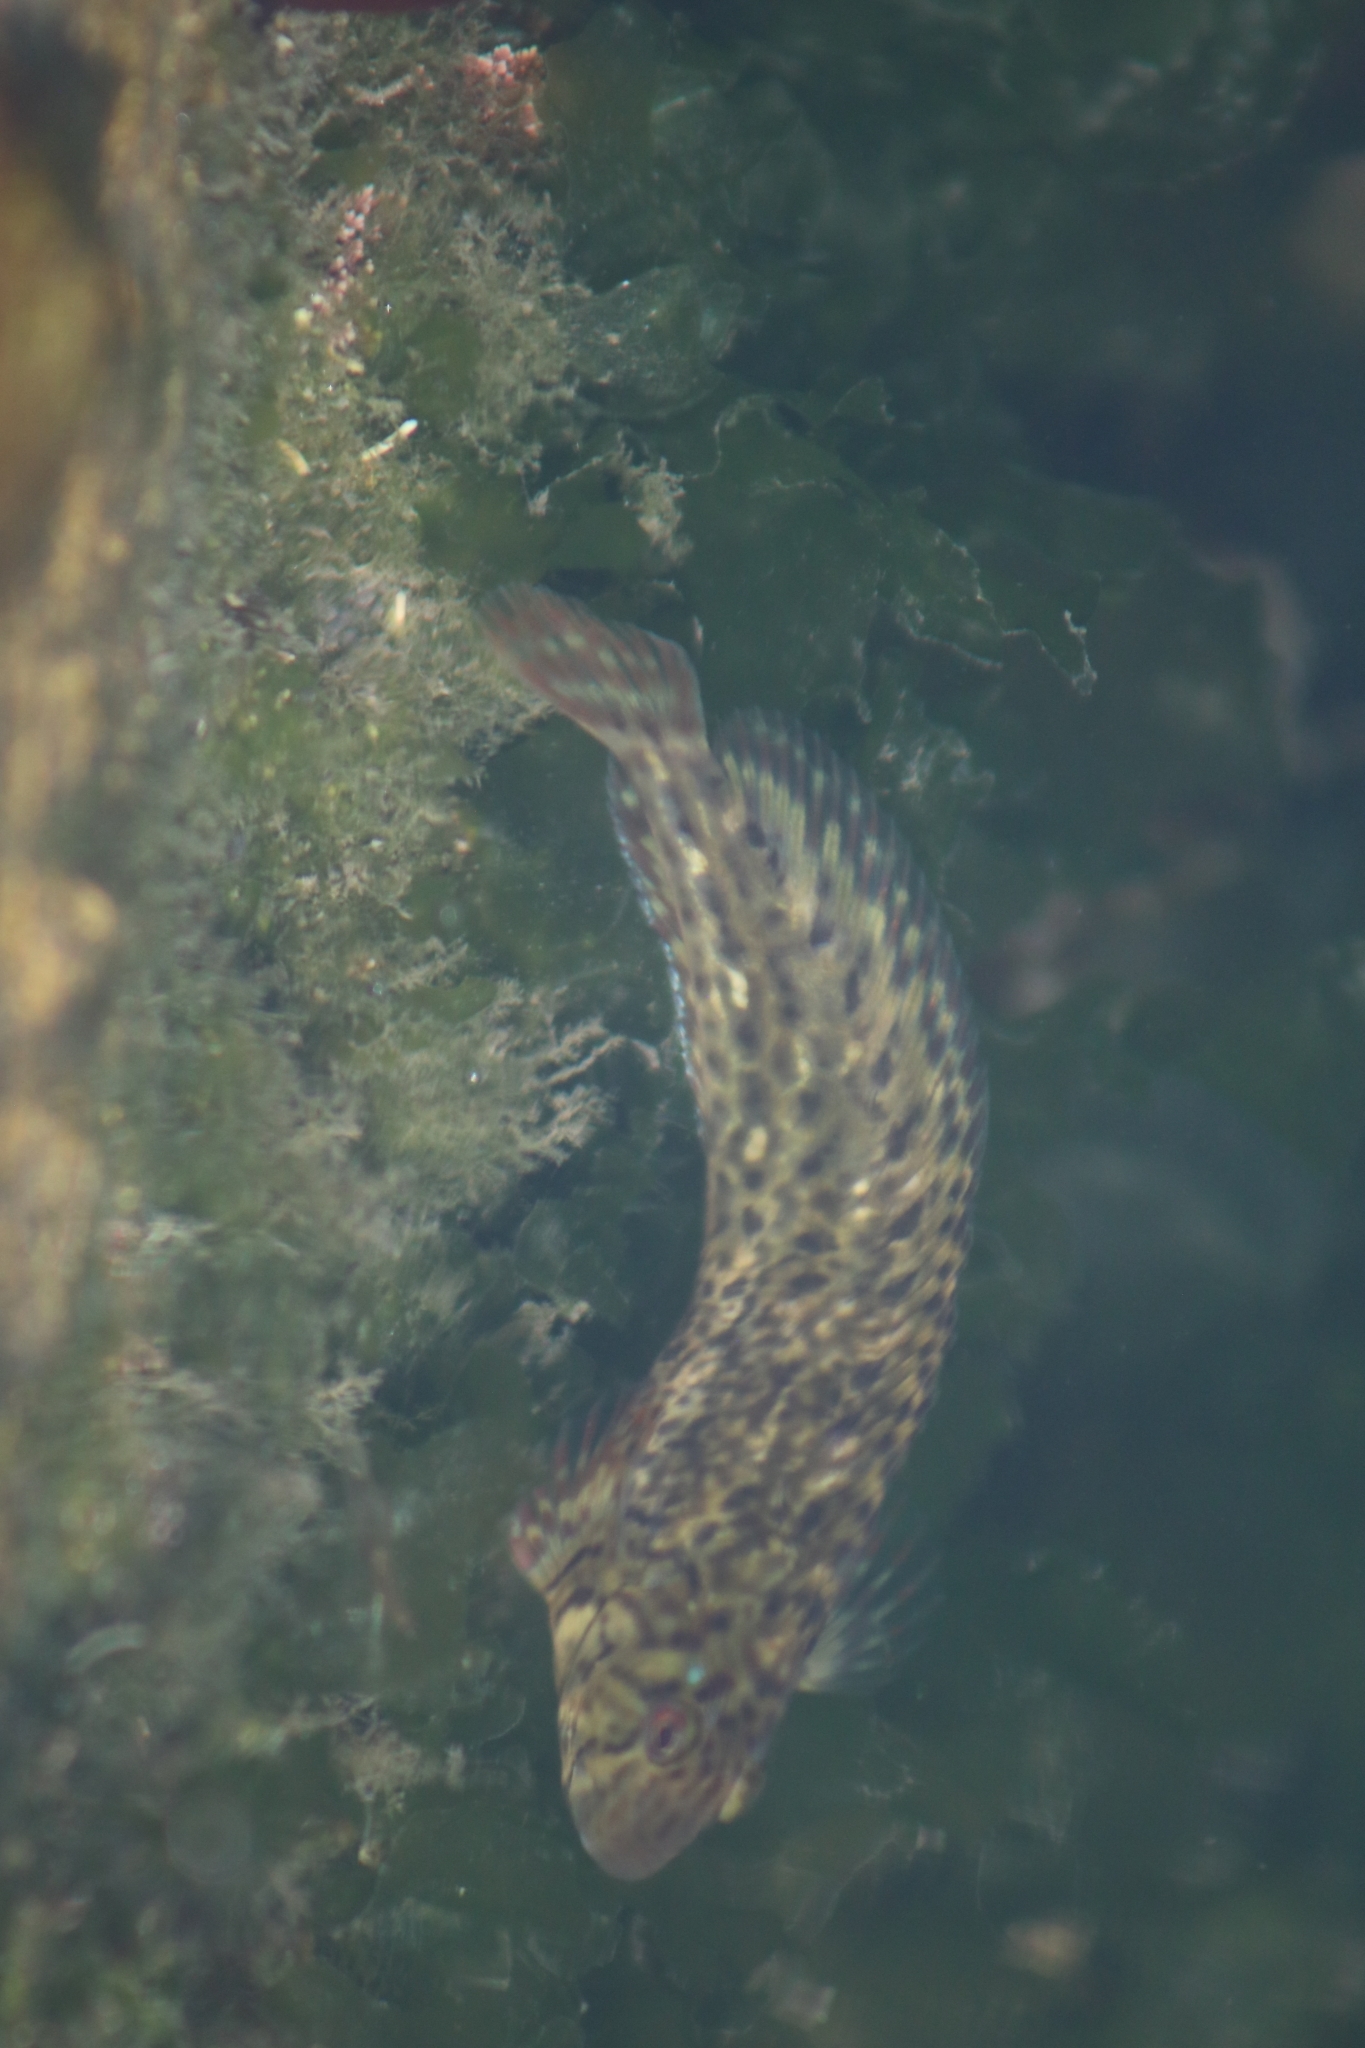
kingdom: Animalia
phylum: Chordata
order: Perciformes
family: Blenniidae
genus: Parablennius
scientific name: Parablennius sanguinolentus
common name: Black sea blenny
